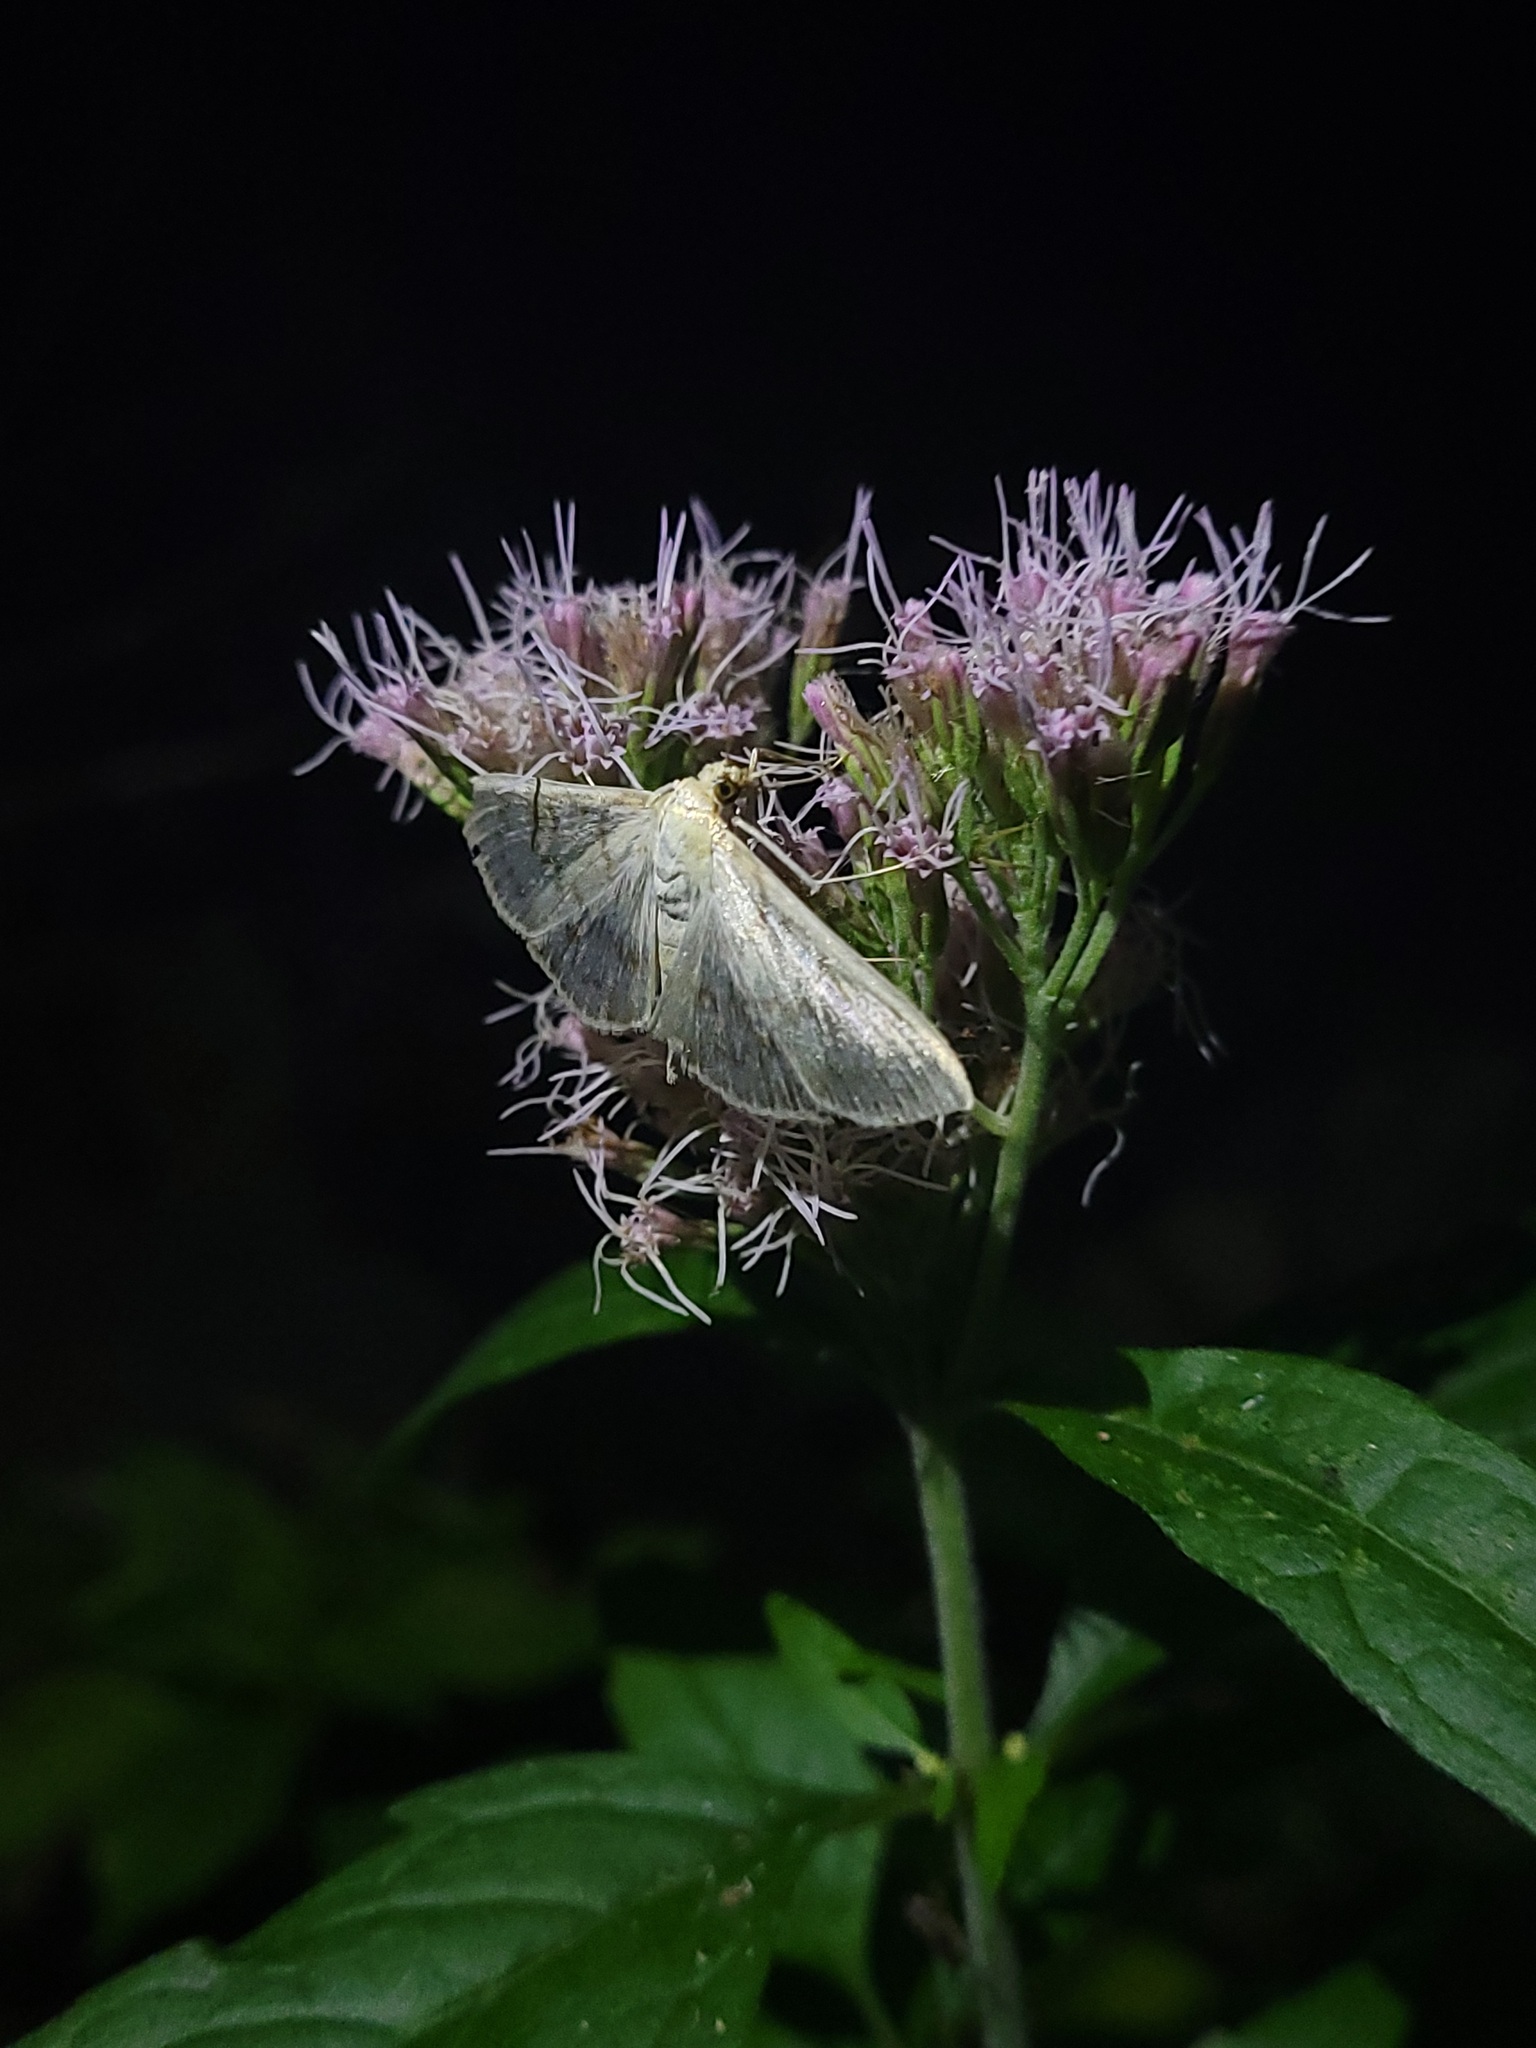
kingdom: Animalia
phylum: Arthropoda
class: Insecta
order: Lepidoptera
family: Crambidae
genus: Patania
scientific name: Patania ruralis
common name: Mother of pearl
